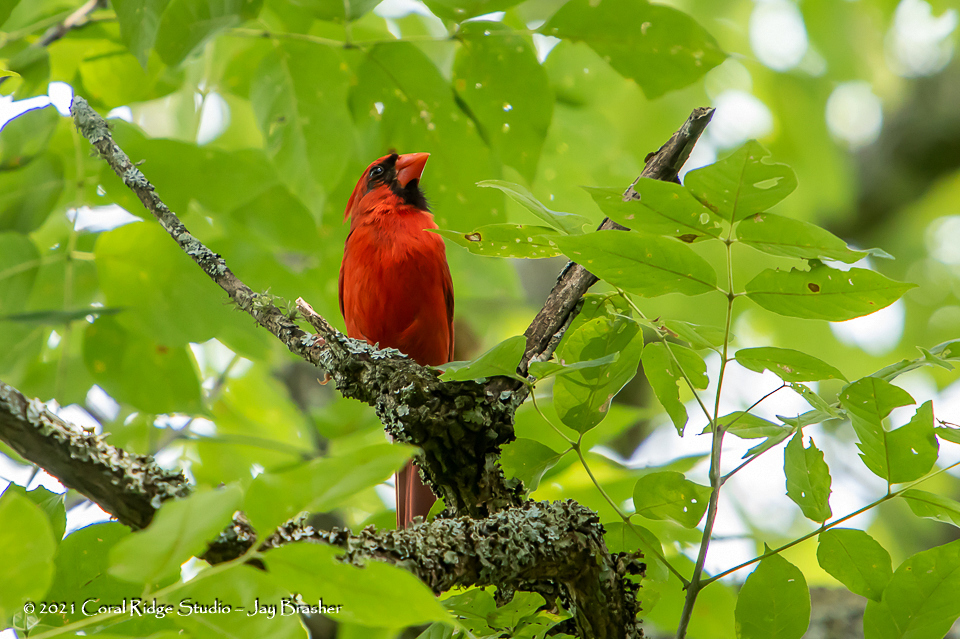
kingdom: Animalia
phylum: Chordata
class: Aves
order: Passeriformes
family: Cardinalidae
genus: Cardinalis
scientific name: Cardinalis cardinalis
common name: Northern cardinal
